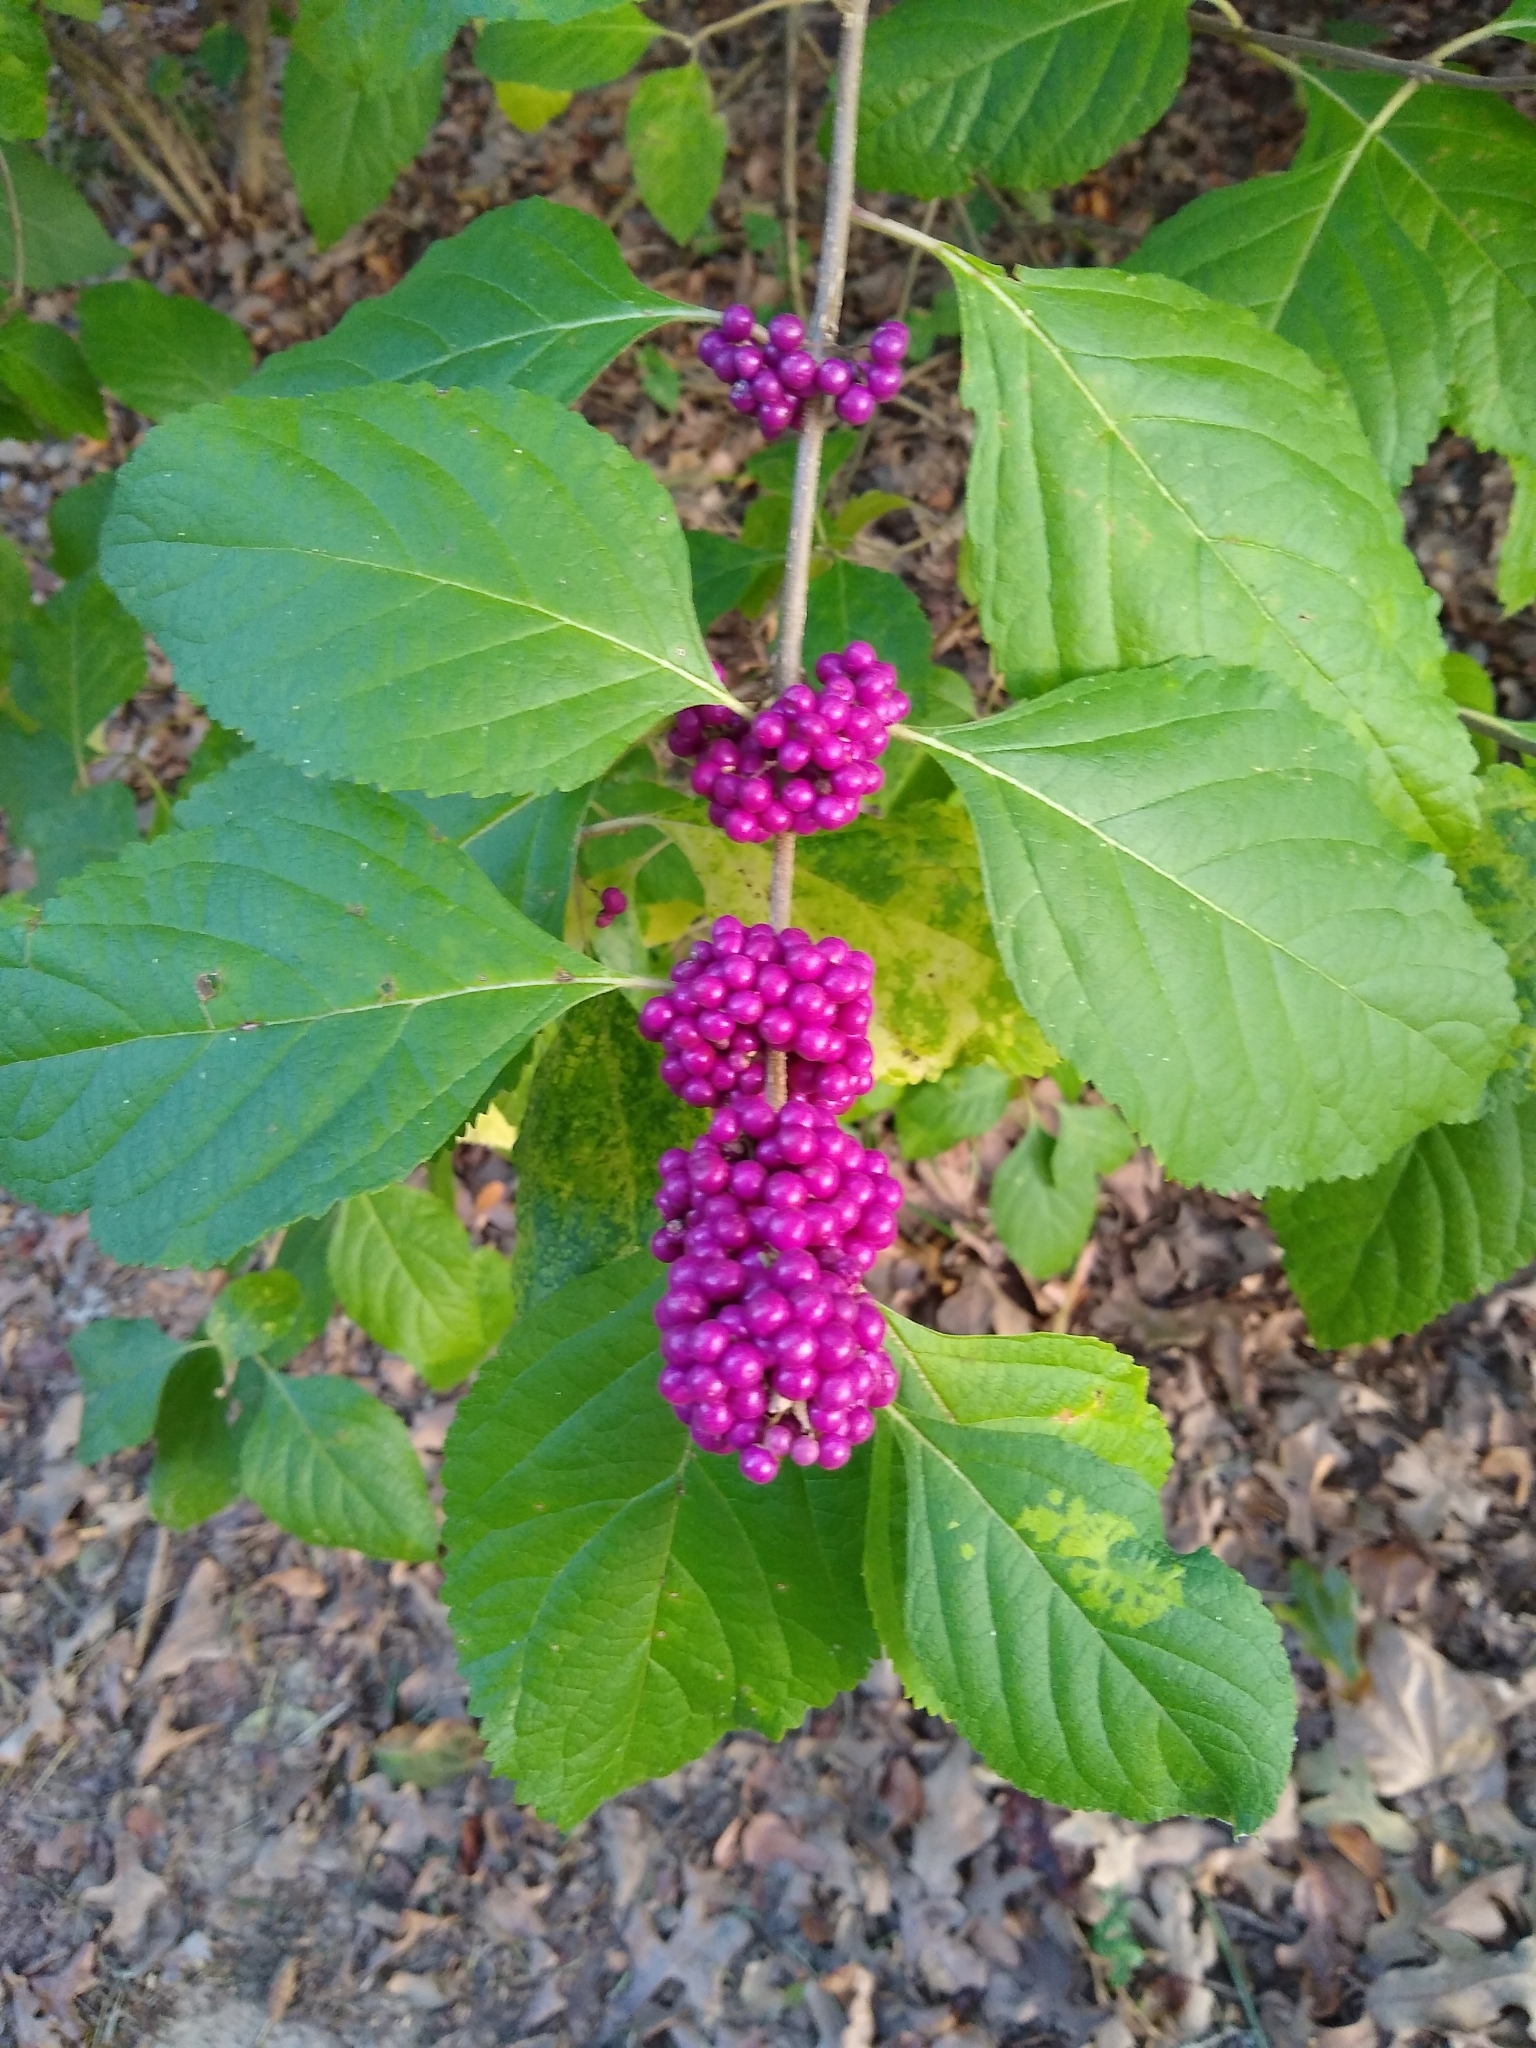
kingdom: Plantae
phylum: Tracheophyta
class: Magnoliopsida
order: Lamiales
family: Lamiaceae
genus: Callicarpa
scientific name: Callicarpa americana
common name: American beautyberry
